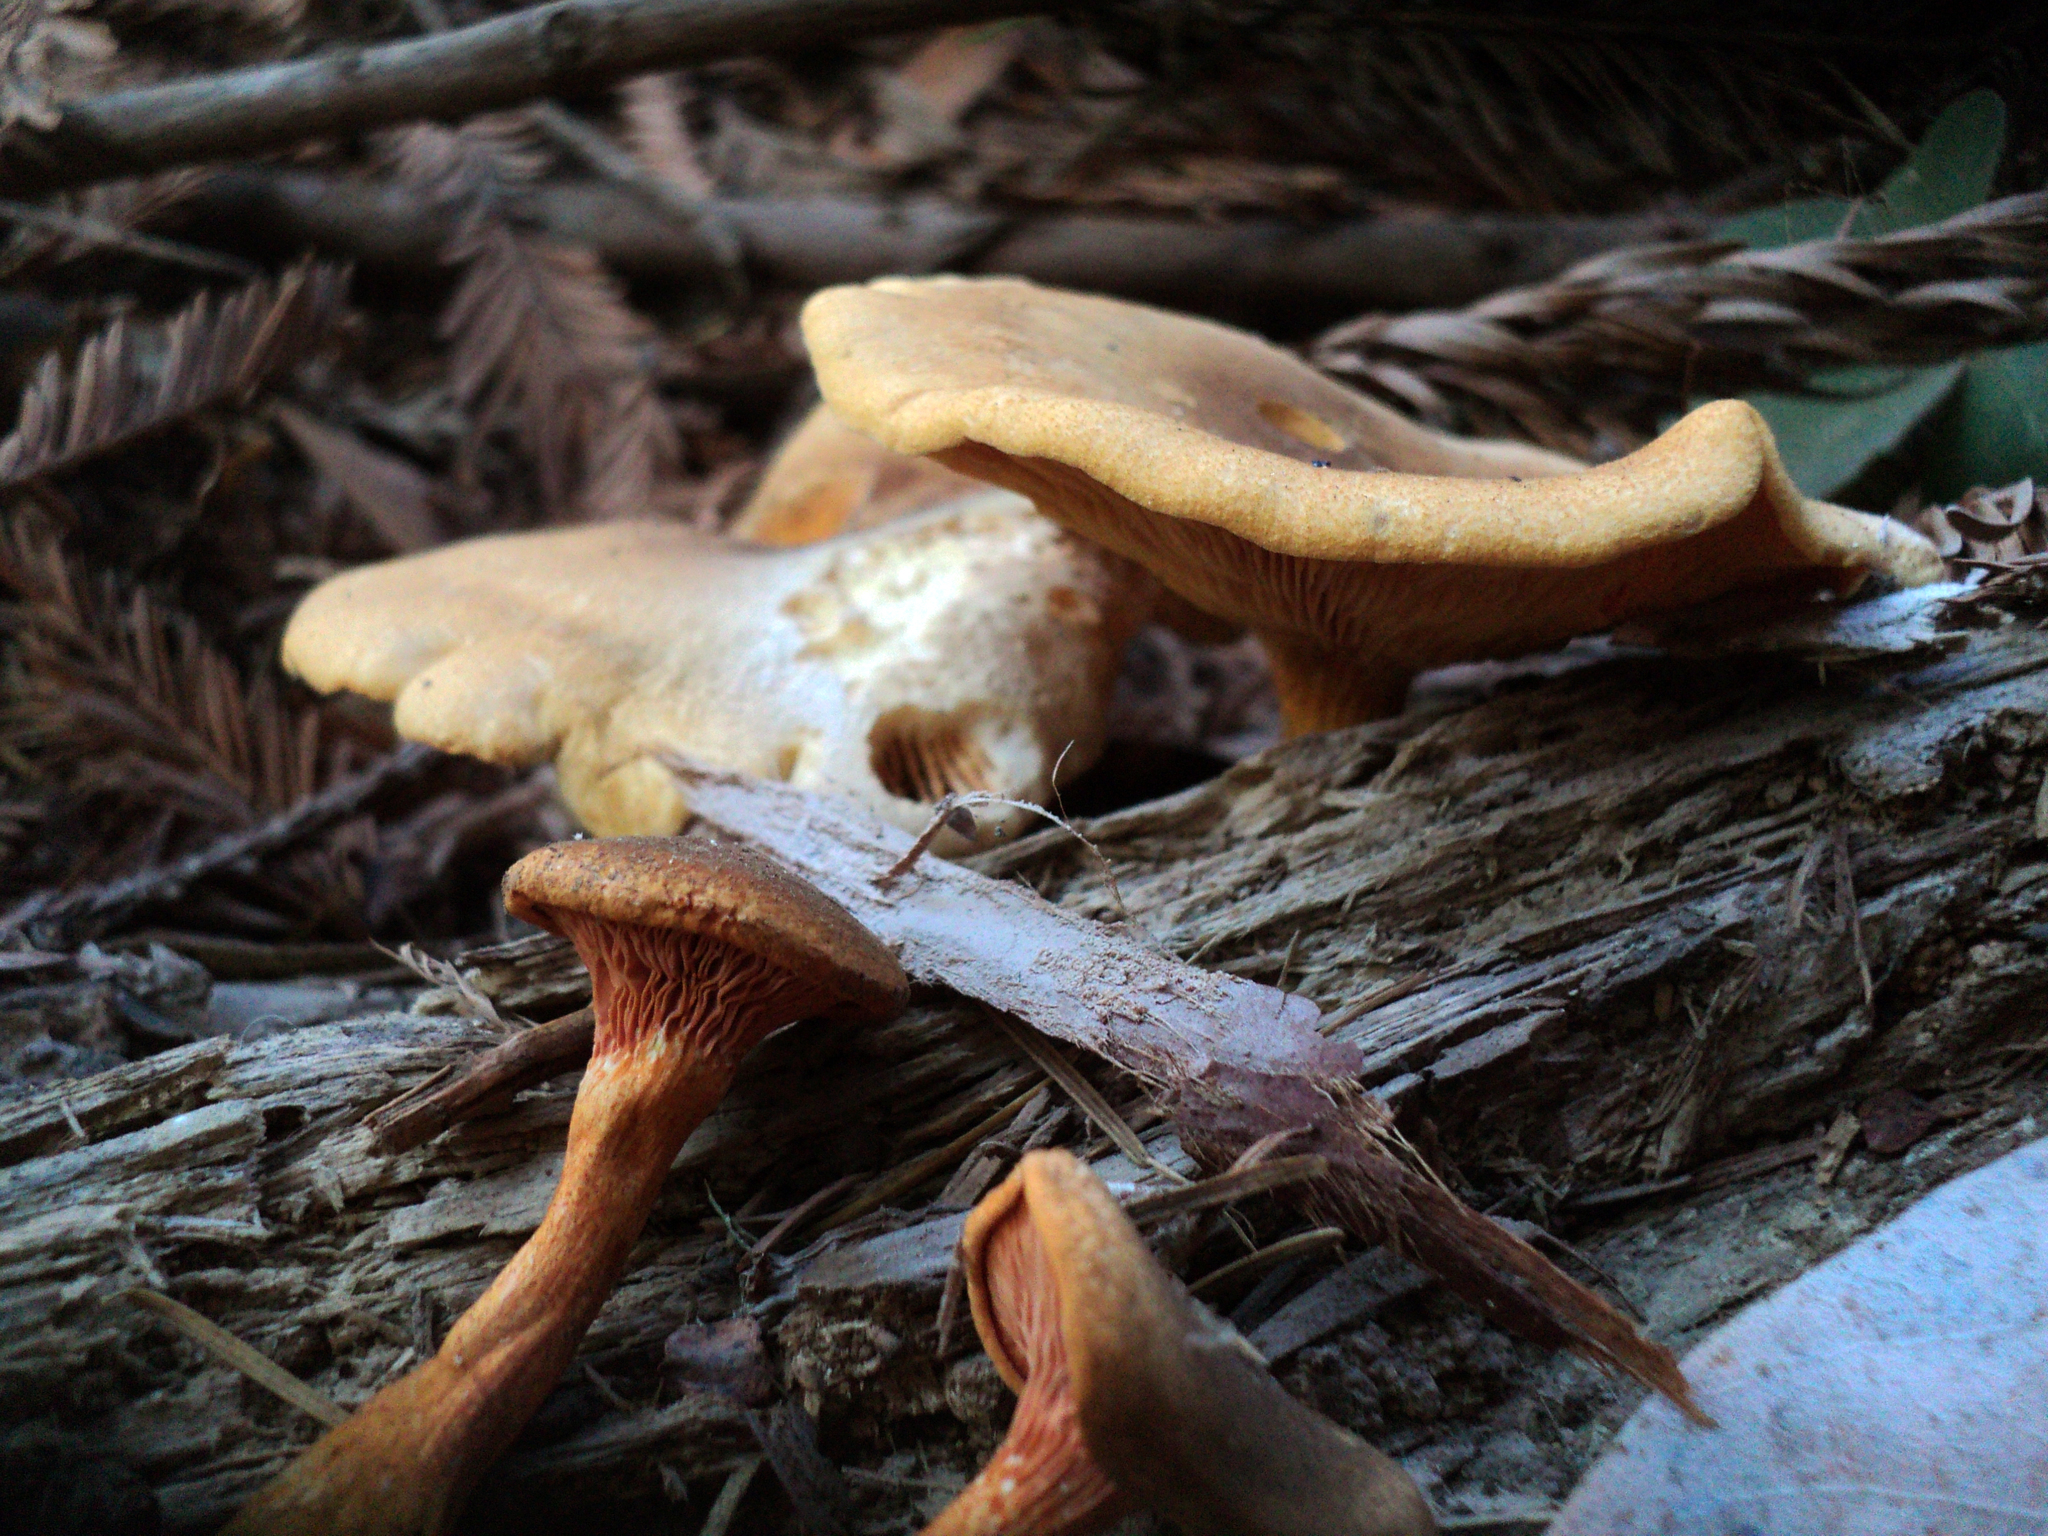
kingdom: Fungi
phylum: Basidiomycota
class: Agaricomycetes
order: Boletales
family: Hygrophoropsidaceae
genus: Hygrophoropsis
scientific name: Hygrophoropsis aurantiaca
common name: False chanterelle
